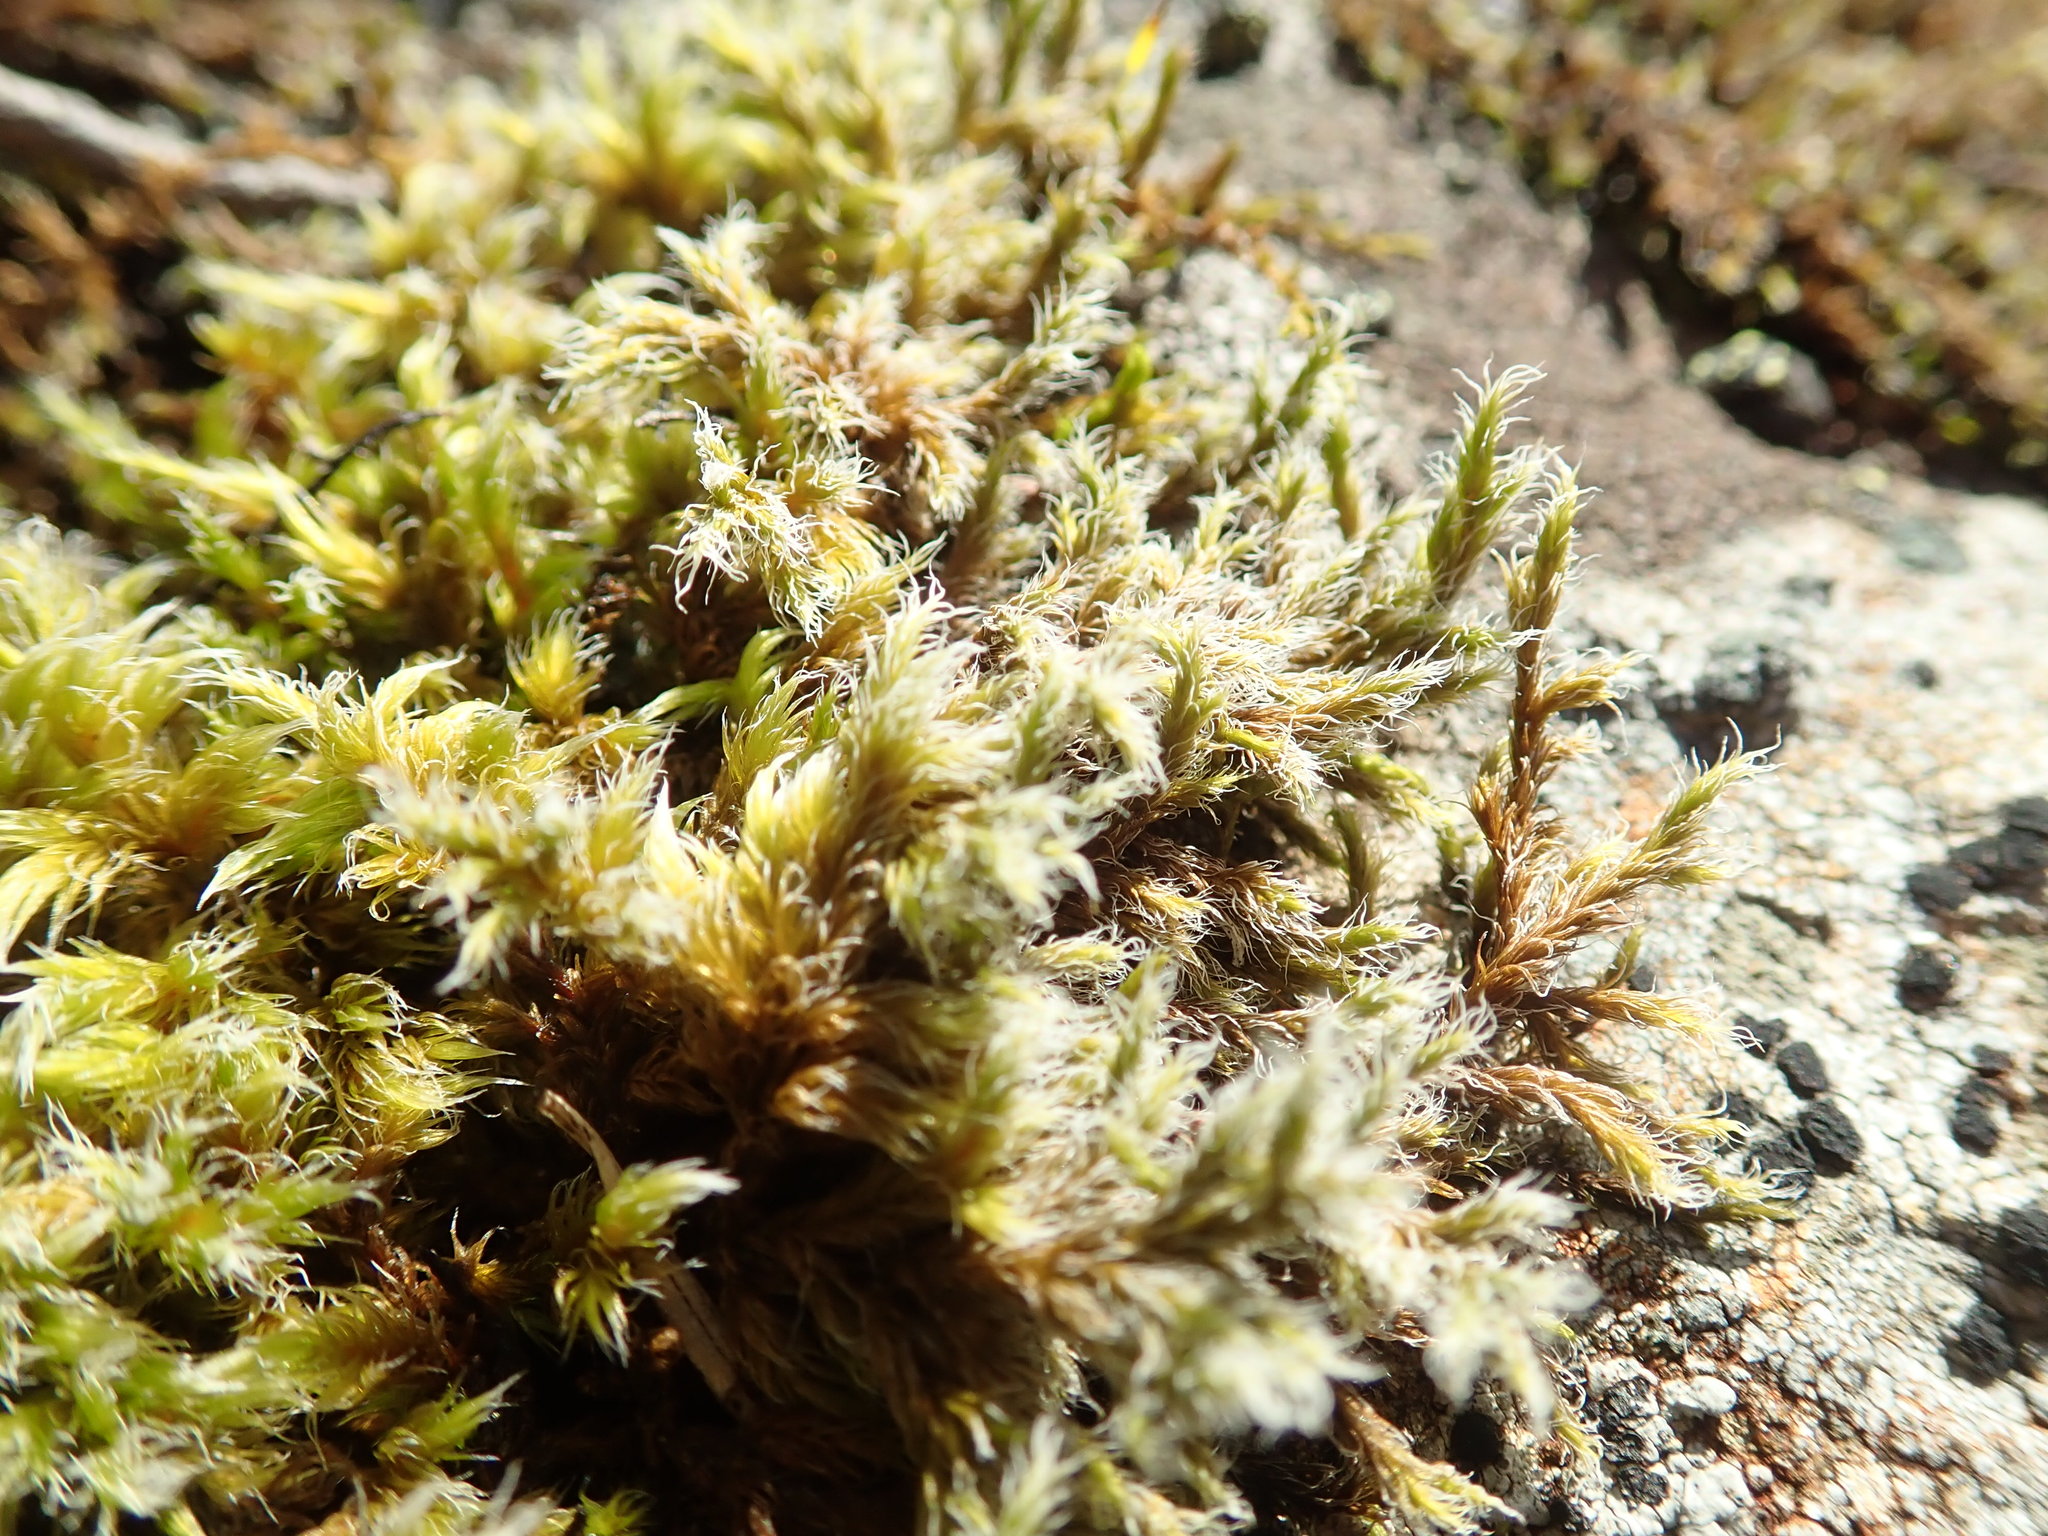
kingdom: Plantae
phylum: Bryophyta
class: Bryopsida
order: Grimmiales
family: Grimmiaceae
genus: Racomitrium
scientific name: Racomitrium lanuginosum
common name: Hoary rock moss
